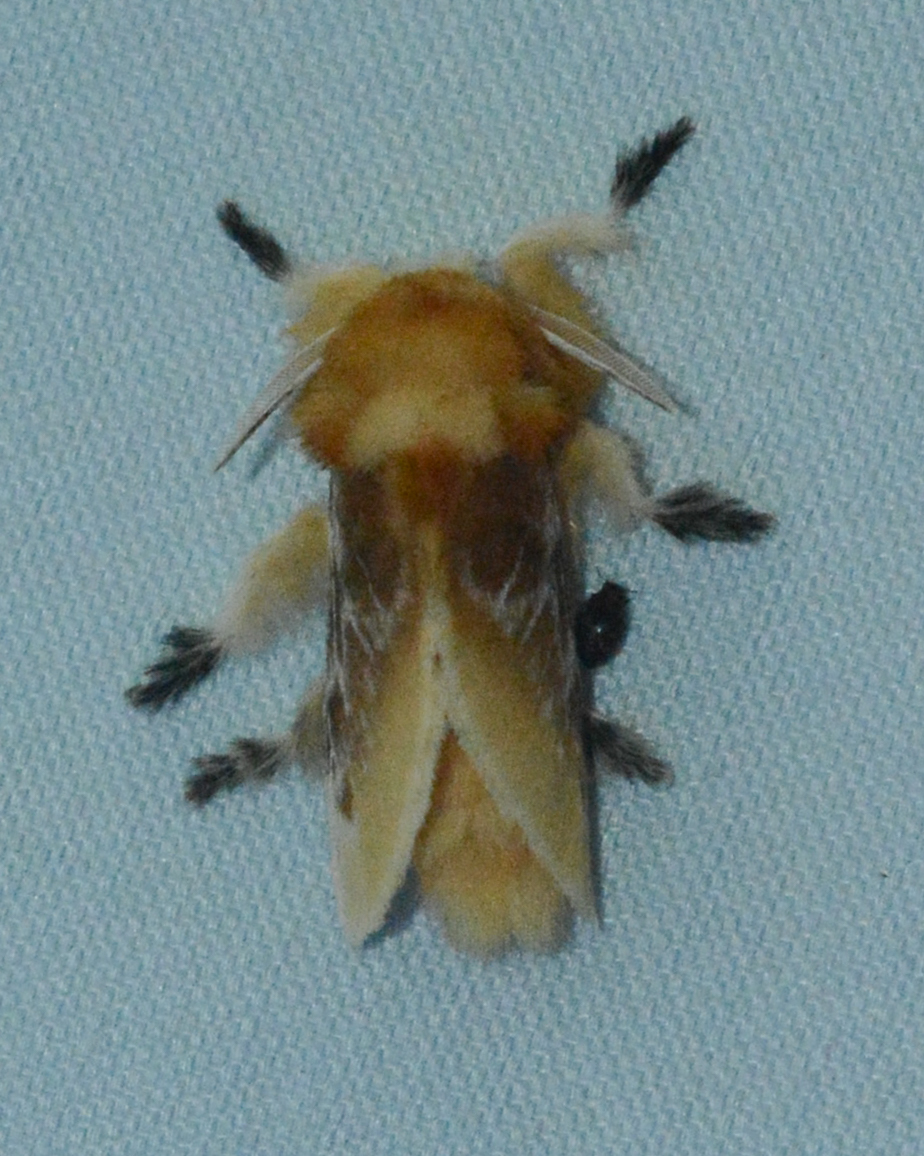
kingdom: Animalia
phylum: Arthropoda
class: Insecta
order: Lepidoptera
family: Megalopygidae
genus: Megalopyge
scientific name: Megalopyge opercularis
